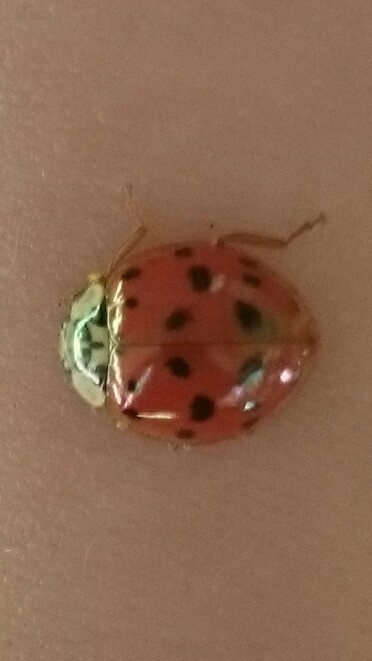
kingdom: Animalia
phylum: Arthropoda
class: Insecta
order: Coleoptera
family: Coccinellidae
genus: Harmonia
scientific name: Harmonia axyridis
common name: Harlequin ladybird
